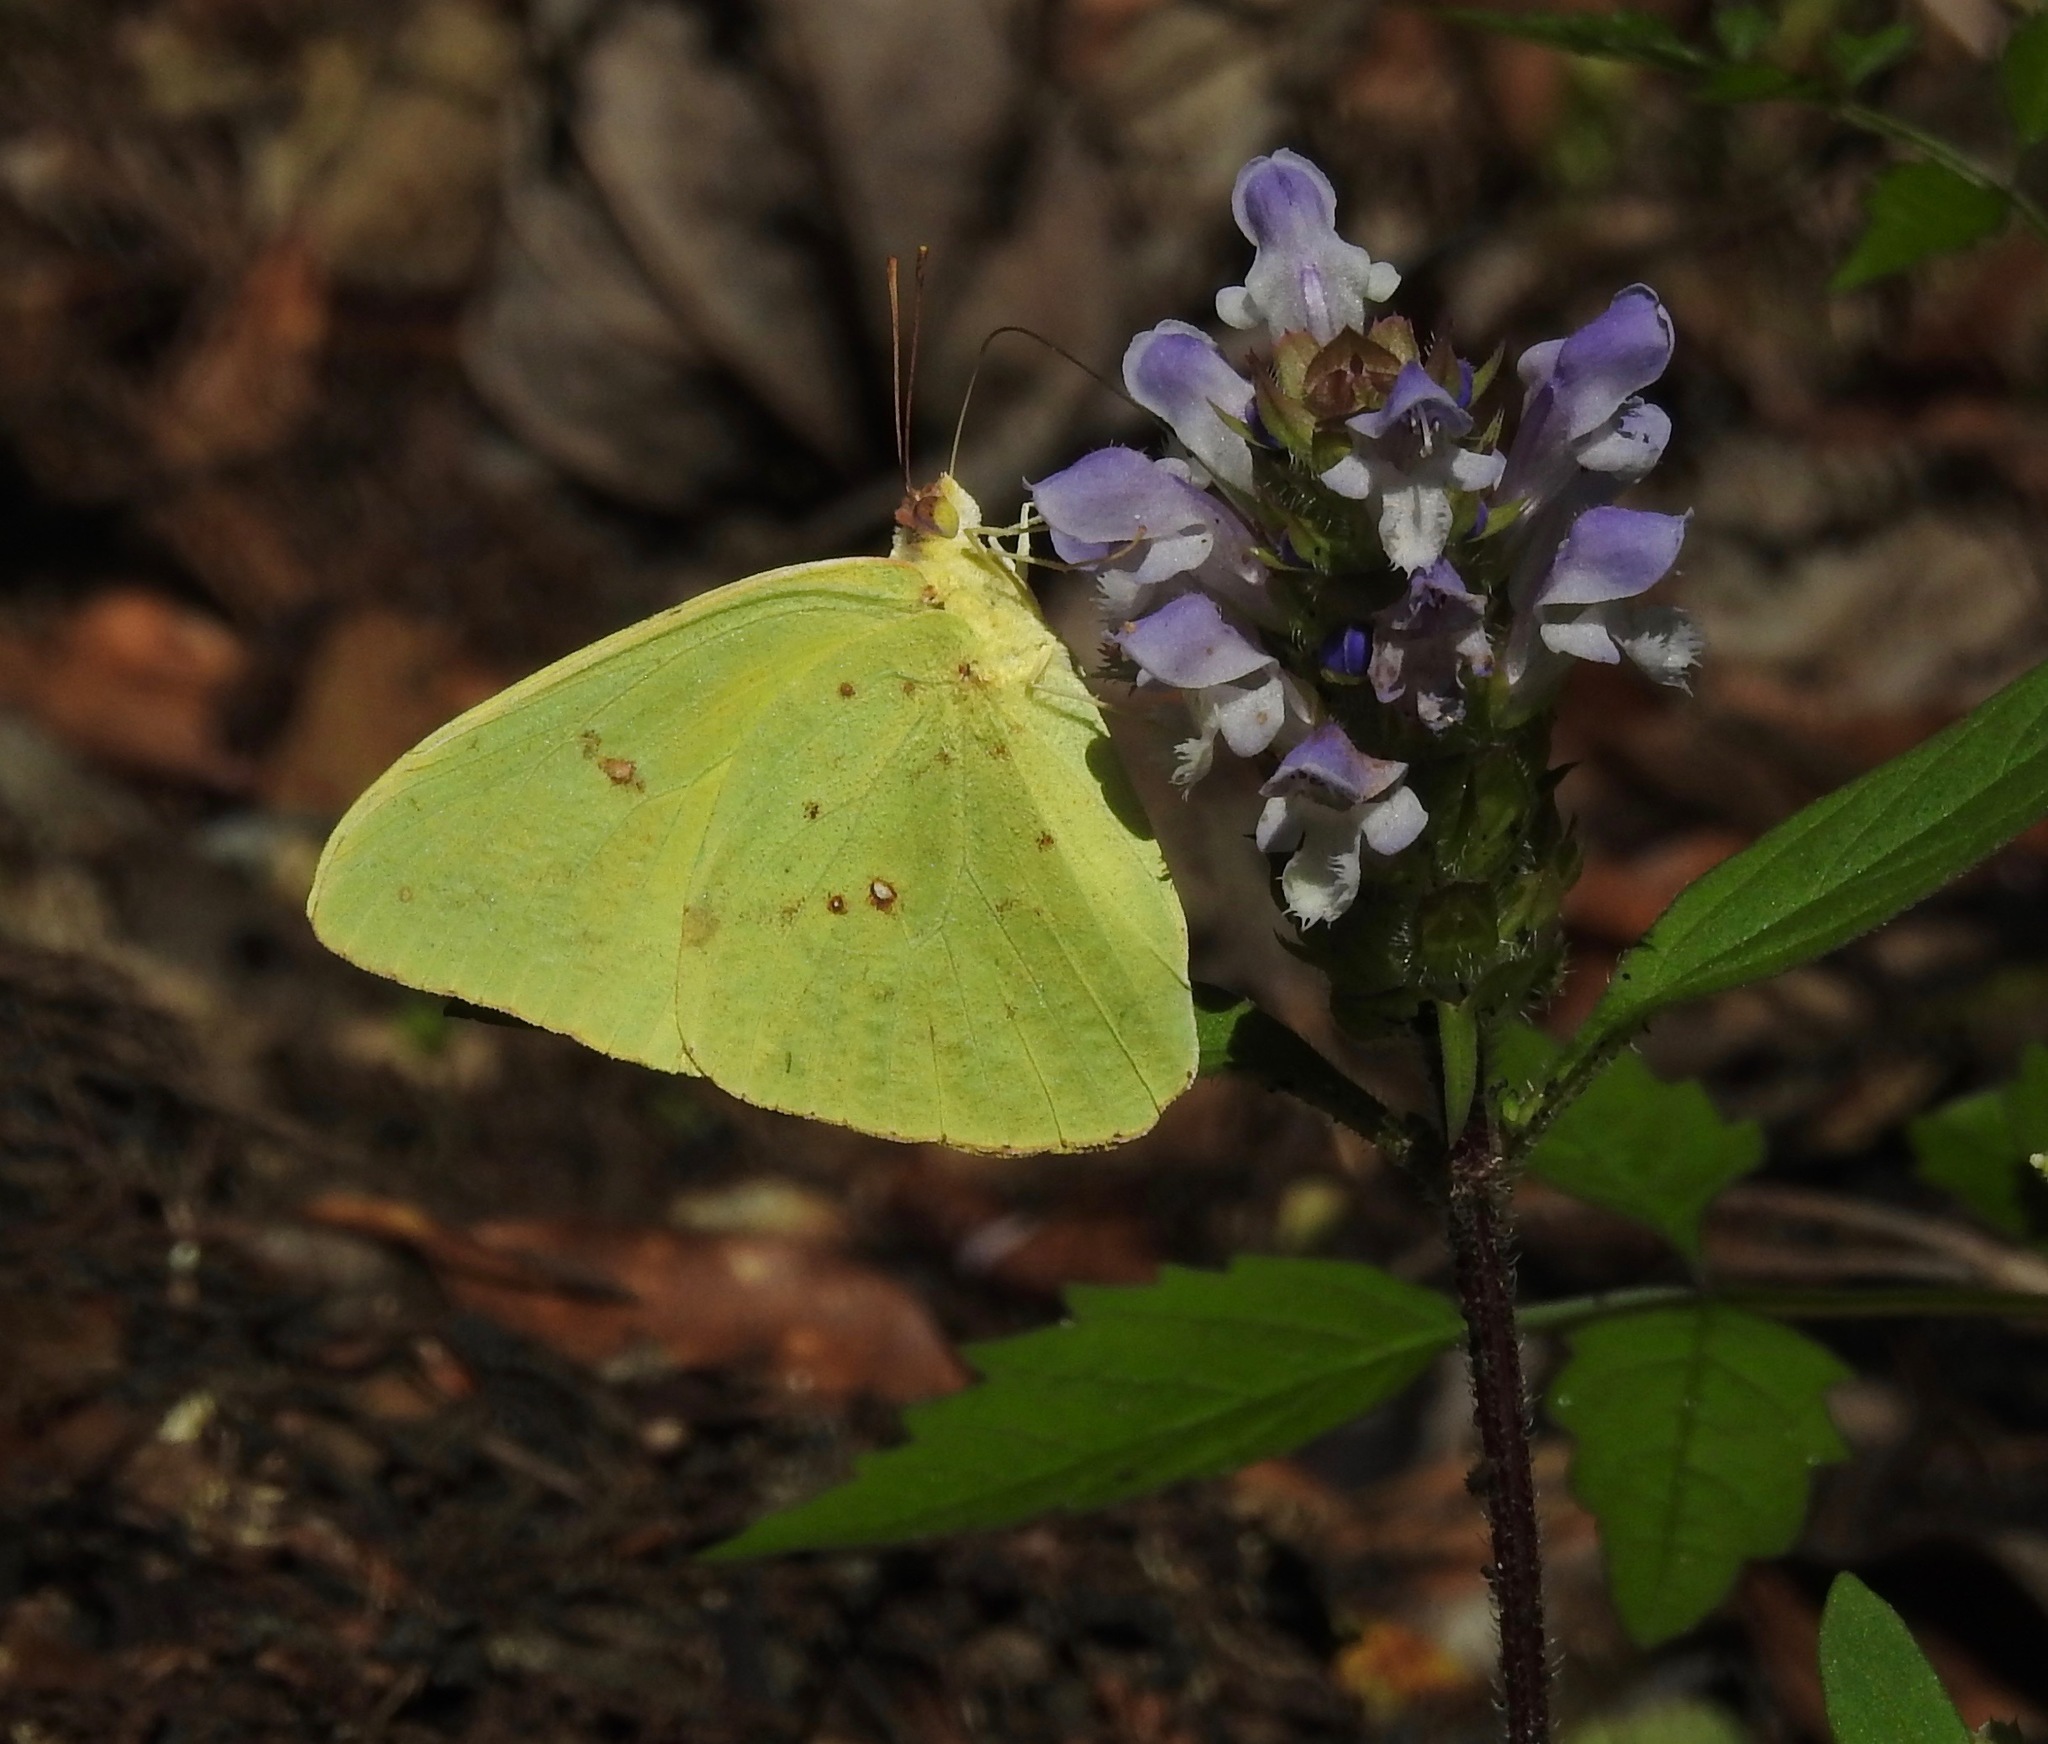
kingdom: Animalia
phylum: Arthropoda
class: Insecta
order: Lepidoptera
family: Pieridae
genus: Phoebis
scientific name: Phoebis sennae
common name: Cloudless sulphur
